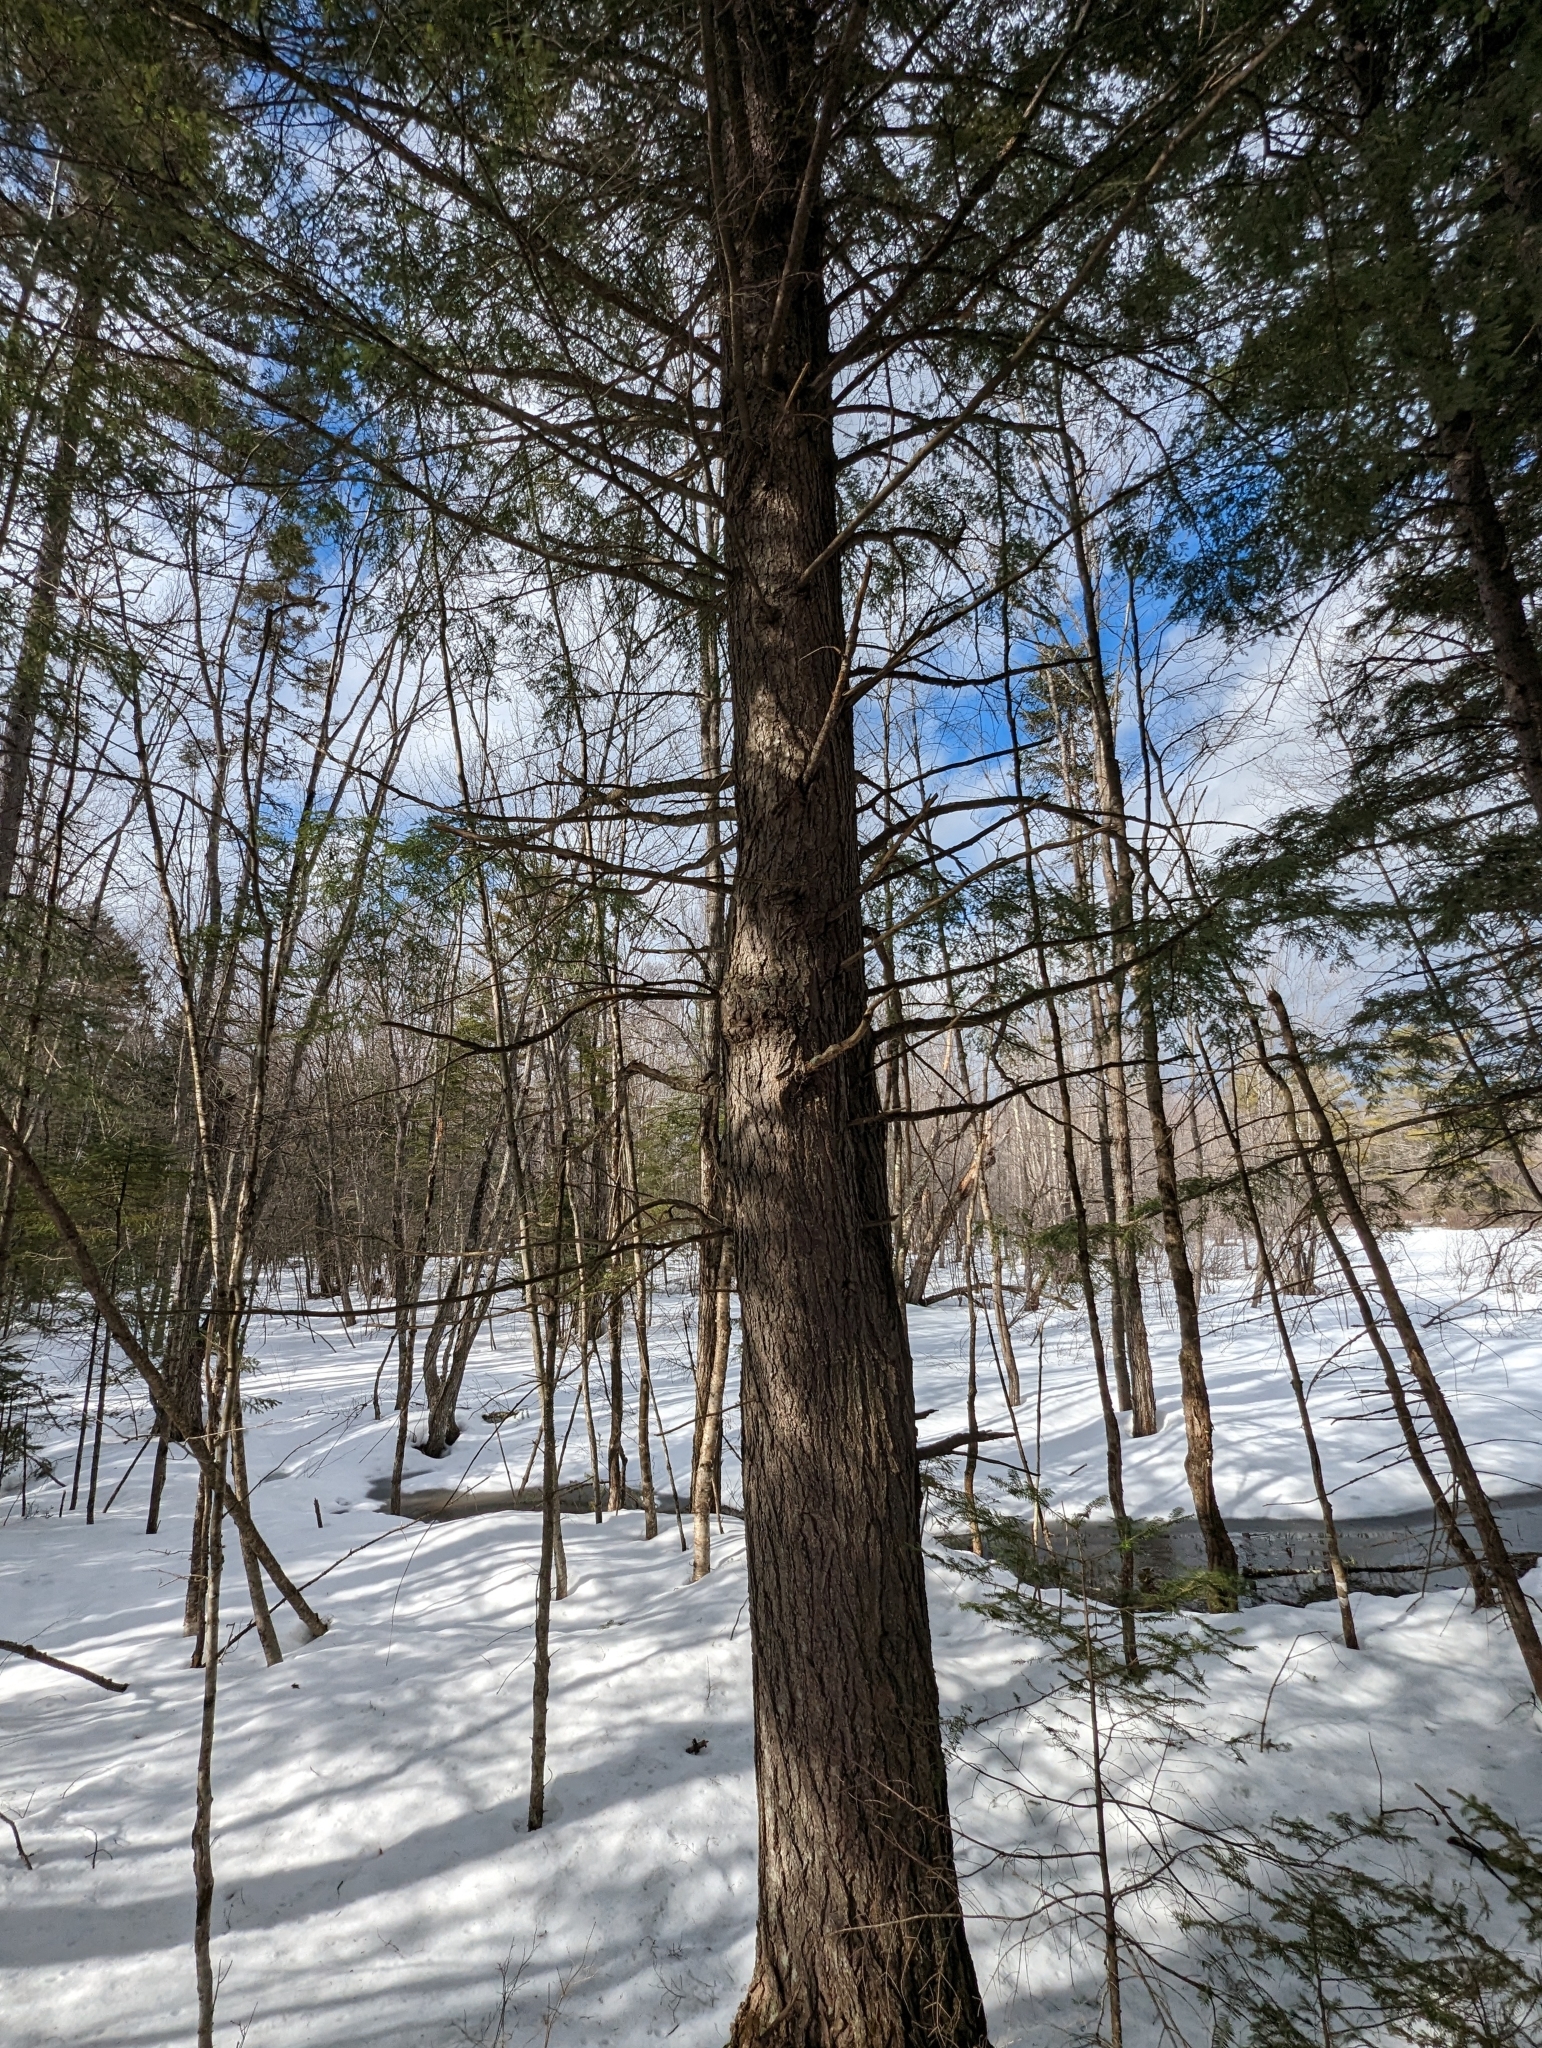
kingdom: Plantae
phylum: Tracheophyta
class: Pinopsida
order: Pinales
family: Pinaceae
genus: Tsuga
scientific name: Tsuga canadensis
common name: Eastern hemlock
